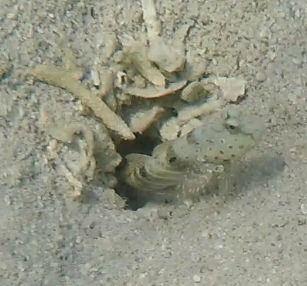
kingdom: Animalia
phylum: Chordata
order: Perciformes
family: Gobiidae
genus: Cryptocentrus
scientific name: Cryptocentrus caeruleopunctatus
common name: Blue-and-red-spotted goby
